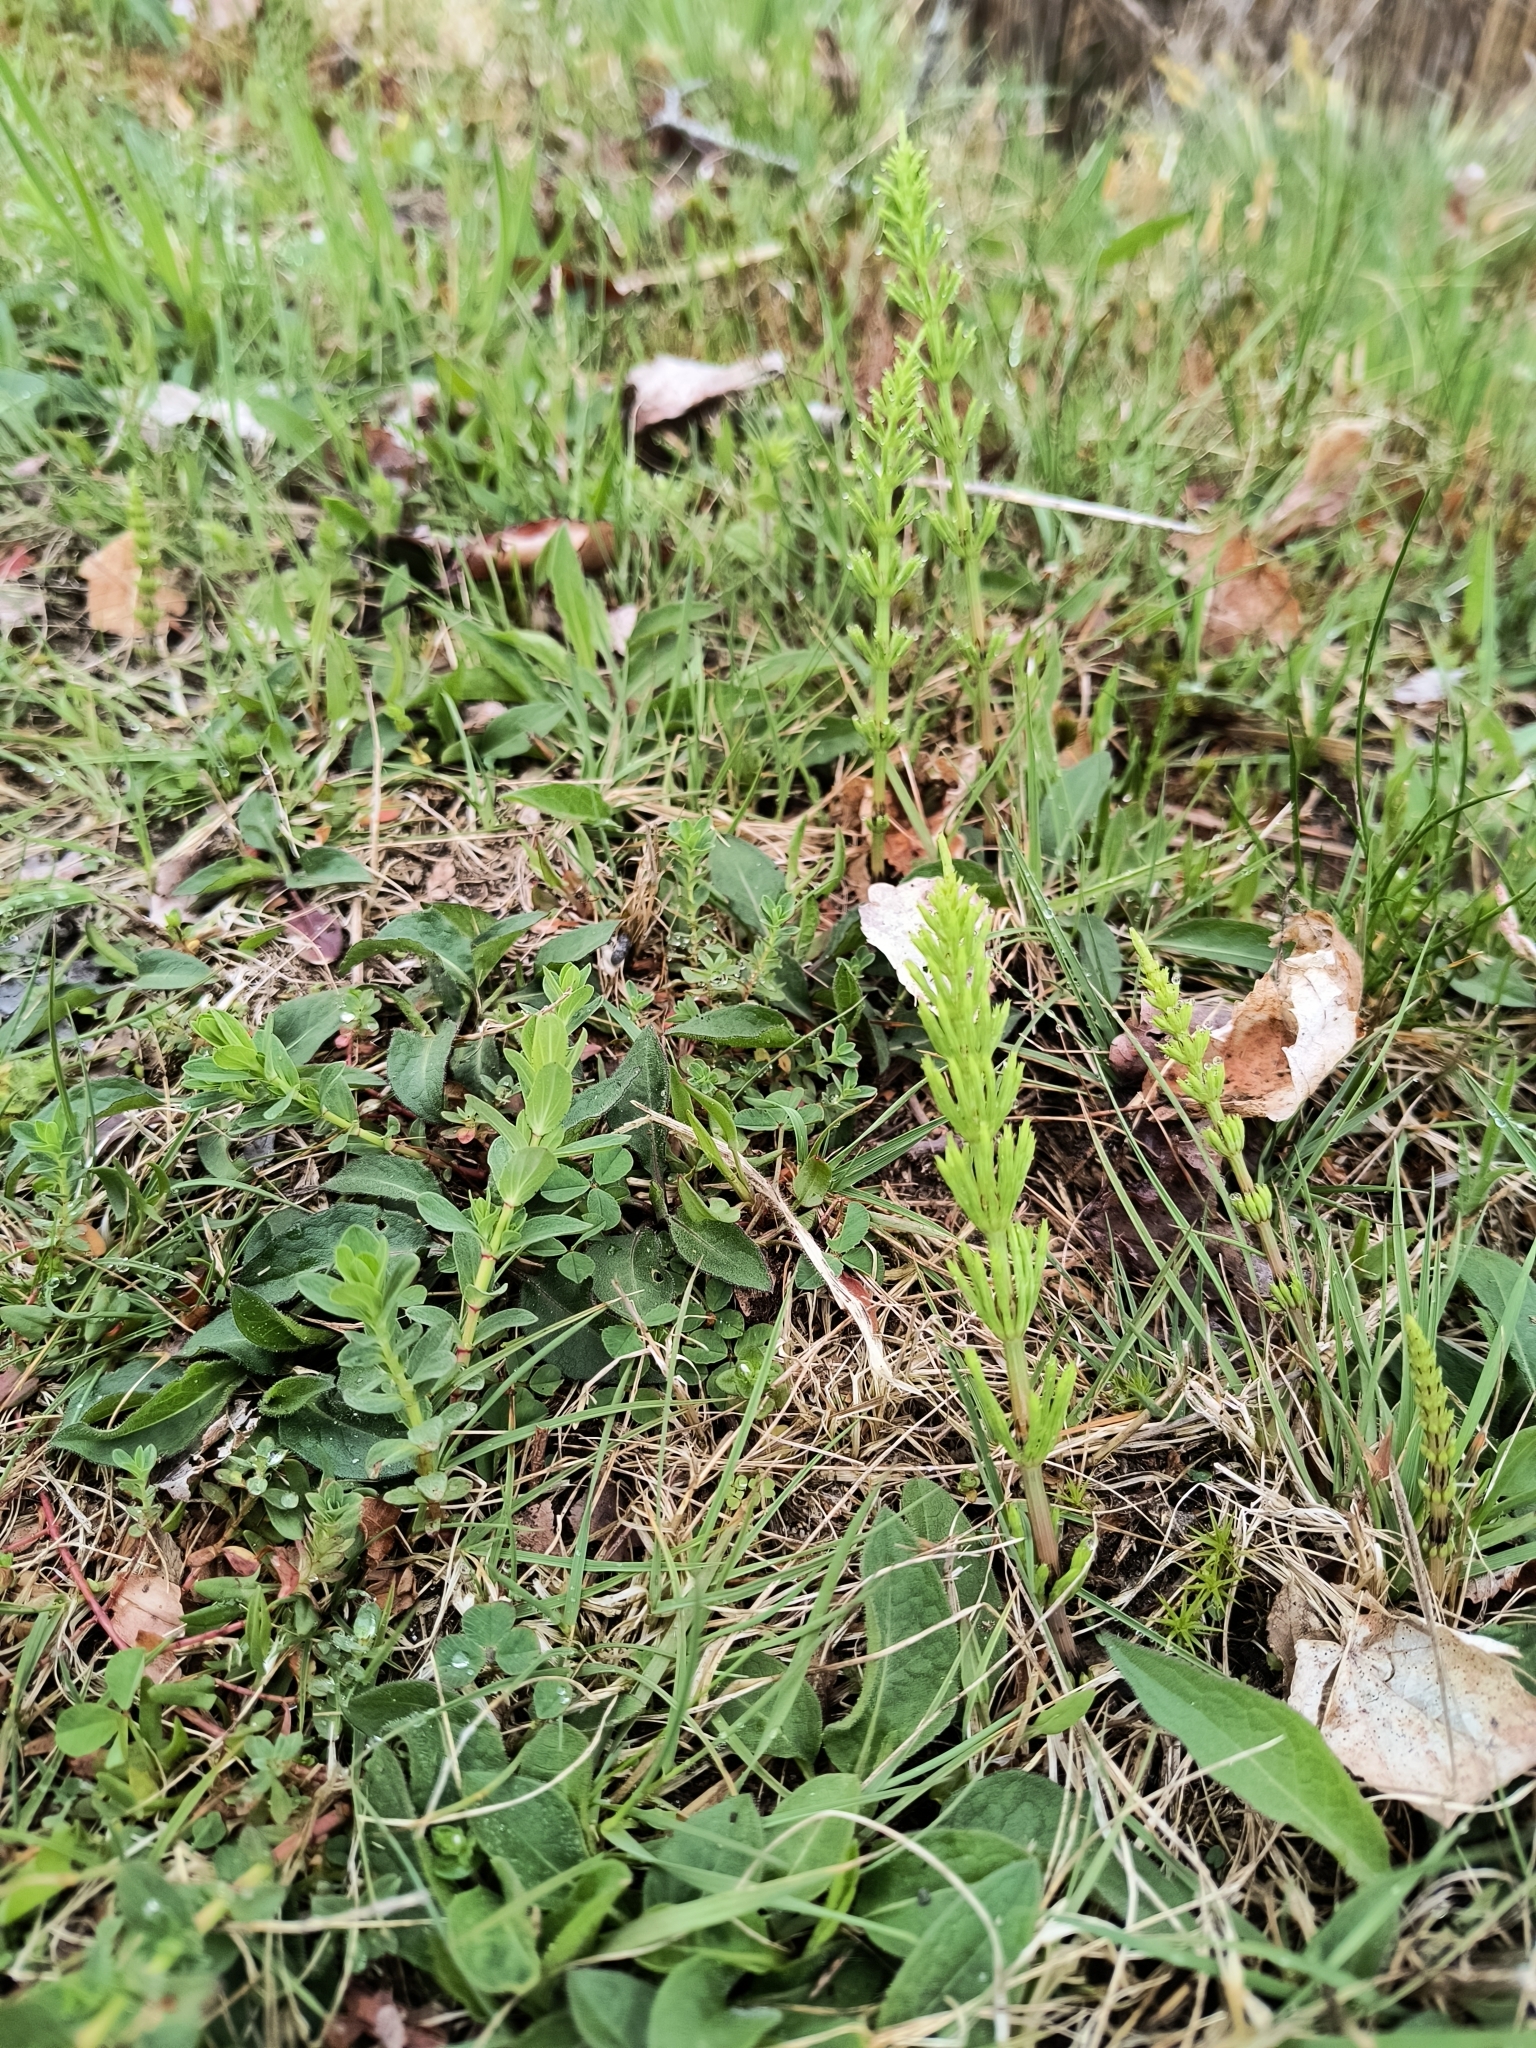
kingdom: Plantae
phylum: Tracheophyta
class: Polypodiopsida
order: Equisetales
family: Equisetaceae
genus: Equisetum
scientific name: Equisetum arvense
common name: Field horsetail
